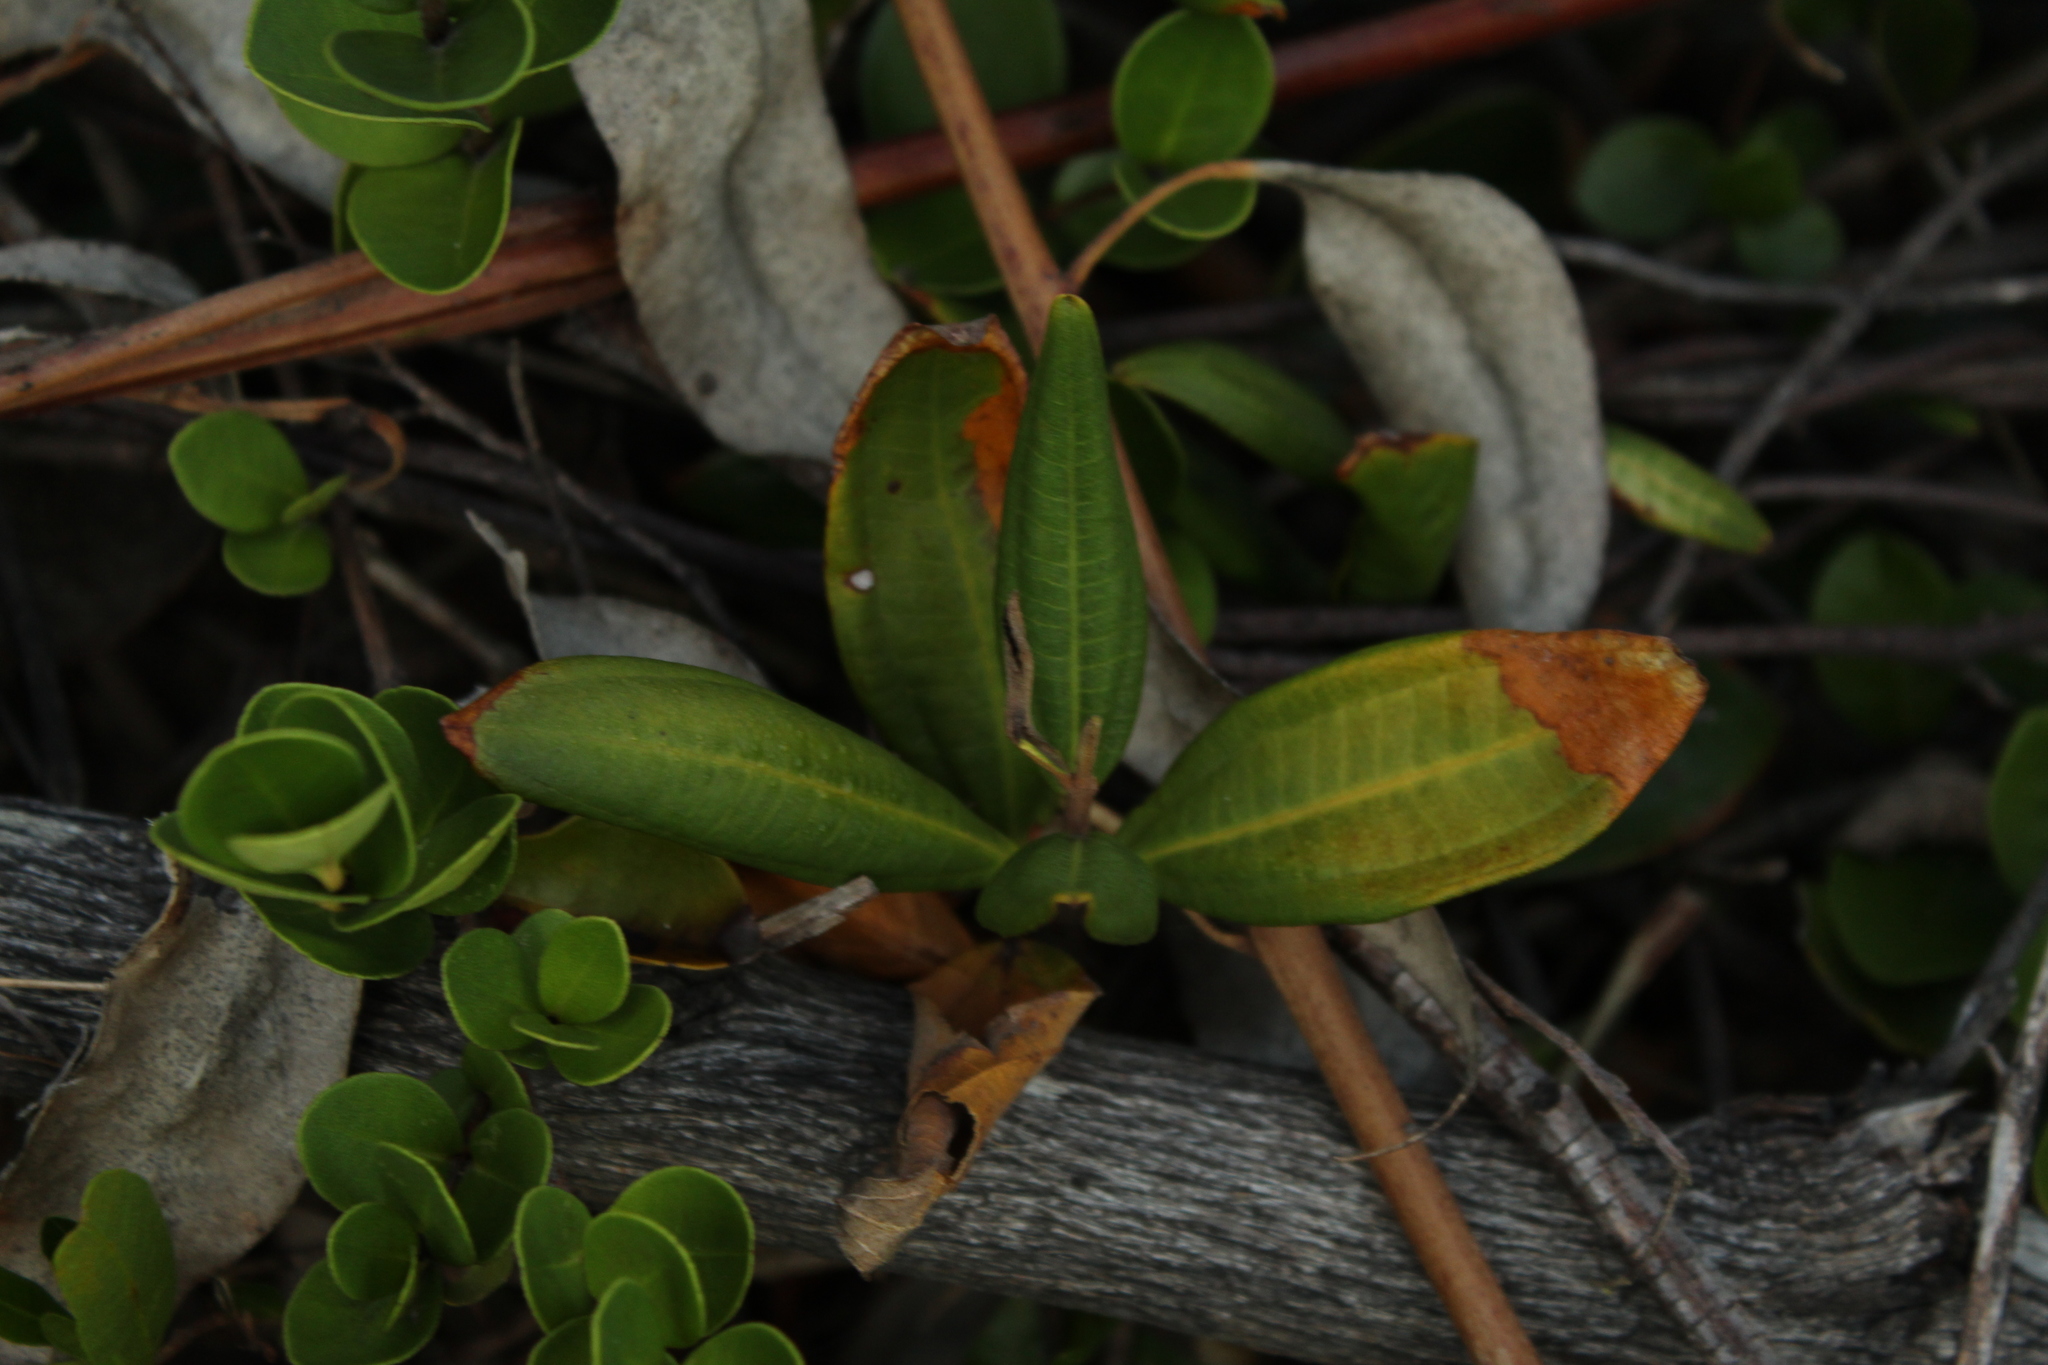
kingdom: Plantae
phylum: Tracheophyta
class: Magnoliopsida
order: Myrtales
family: Melastomataceae
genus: Miconia
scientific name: Miconia squamulosa
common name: Squamulose maya
